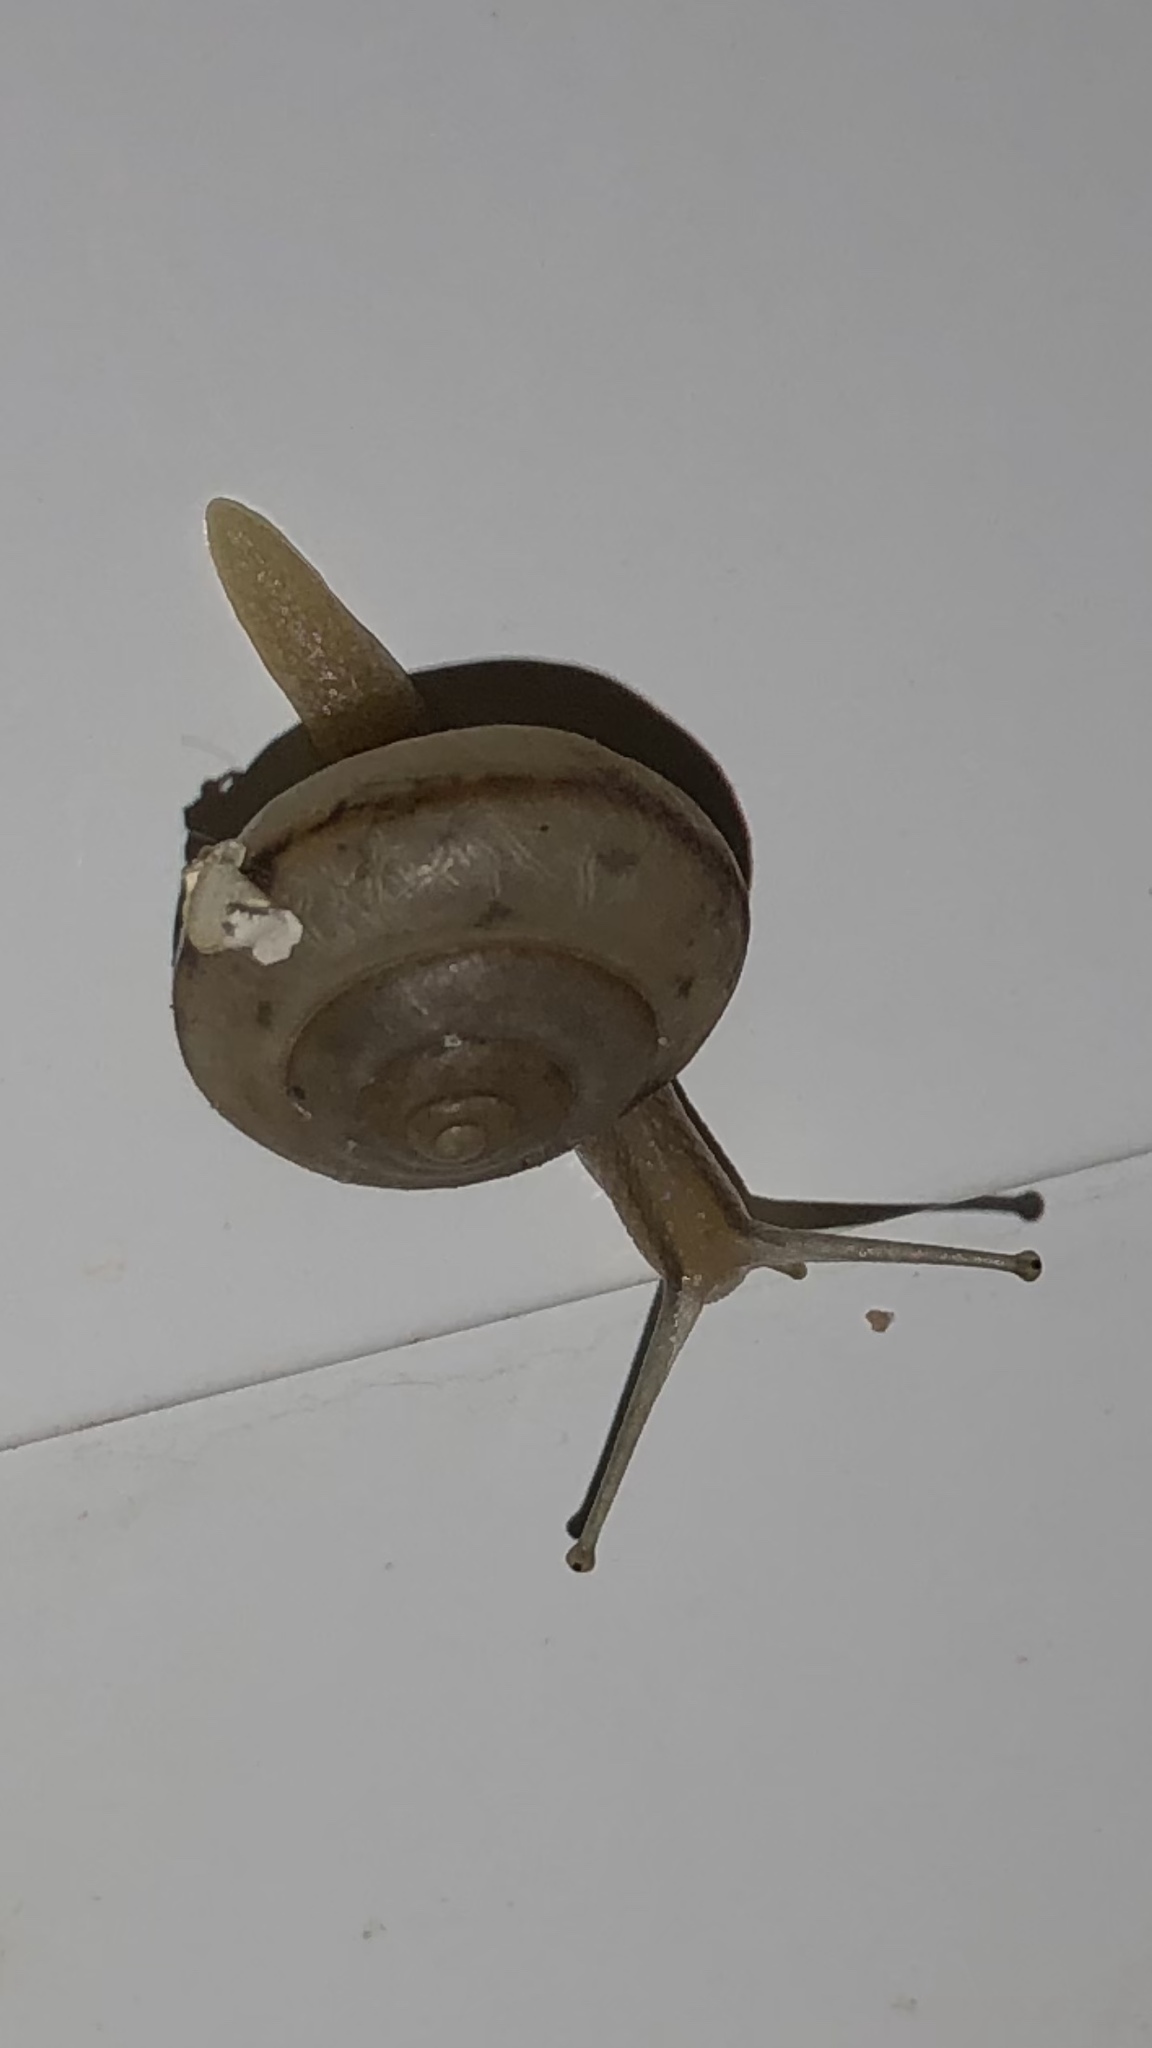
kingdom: Animalia
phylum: Mollusca
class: Gastropoda
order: Stylommatophora
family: Camaenidae
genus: Bradybaena
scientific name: Bradybaena similaris
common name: Asian trampsnail
